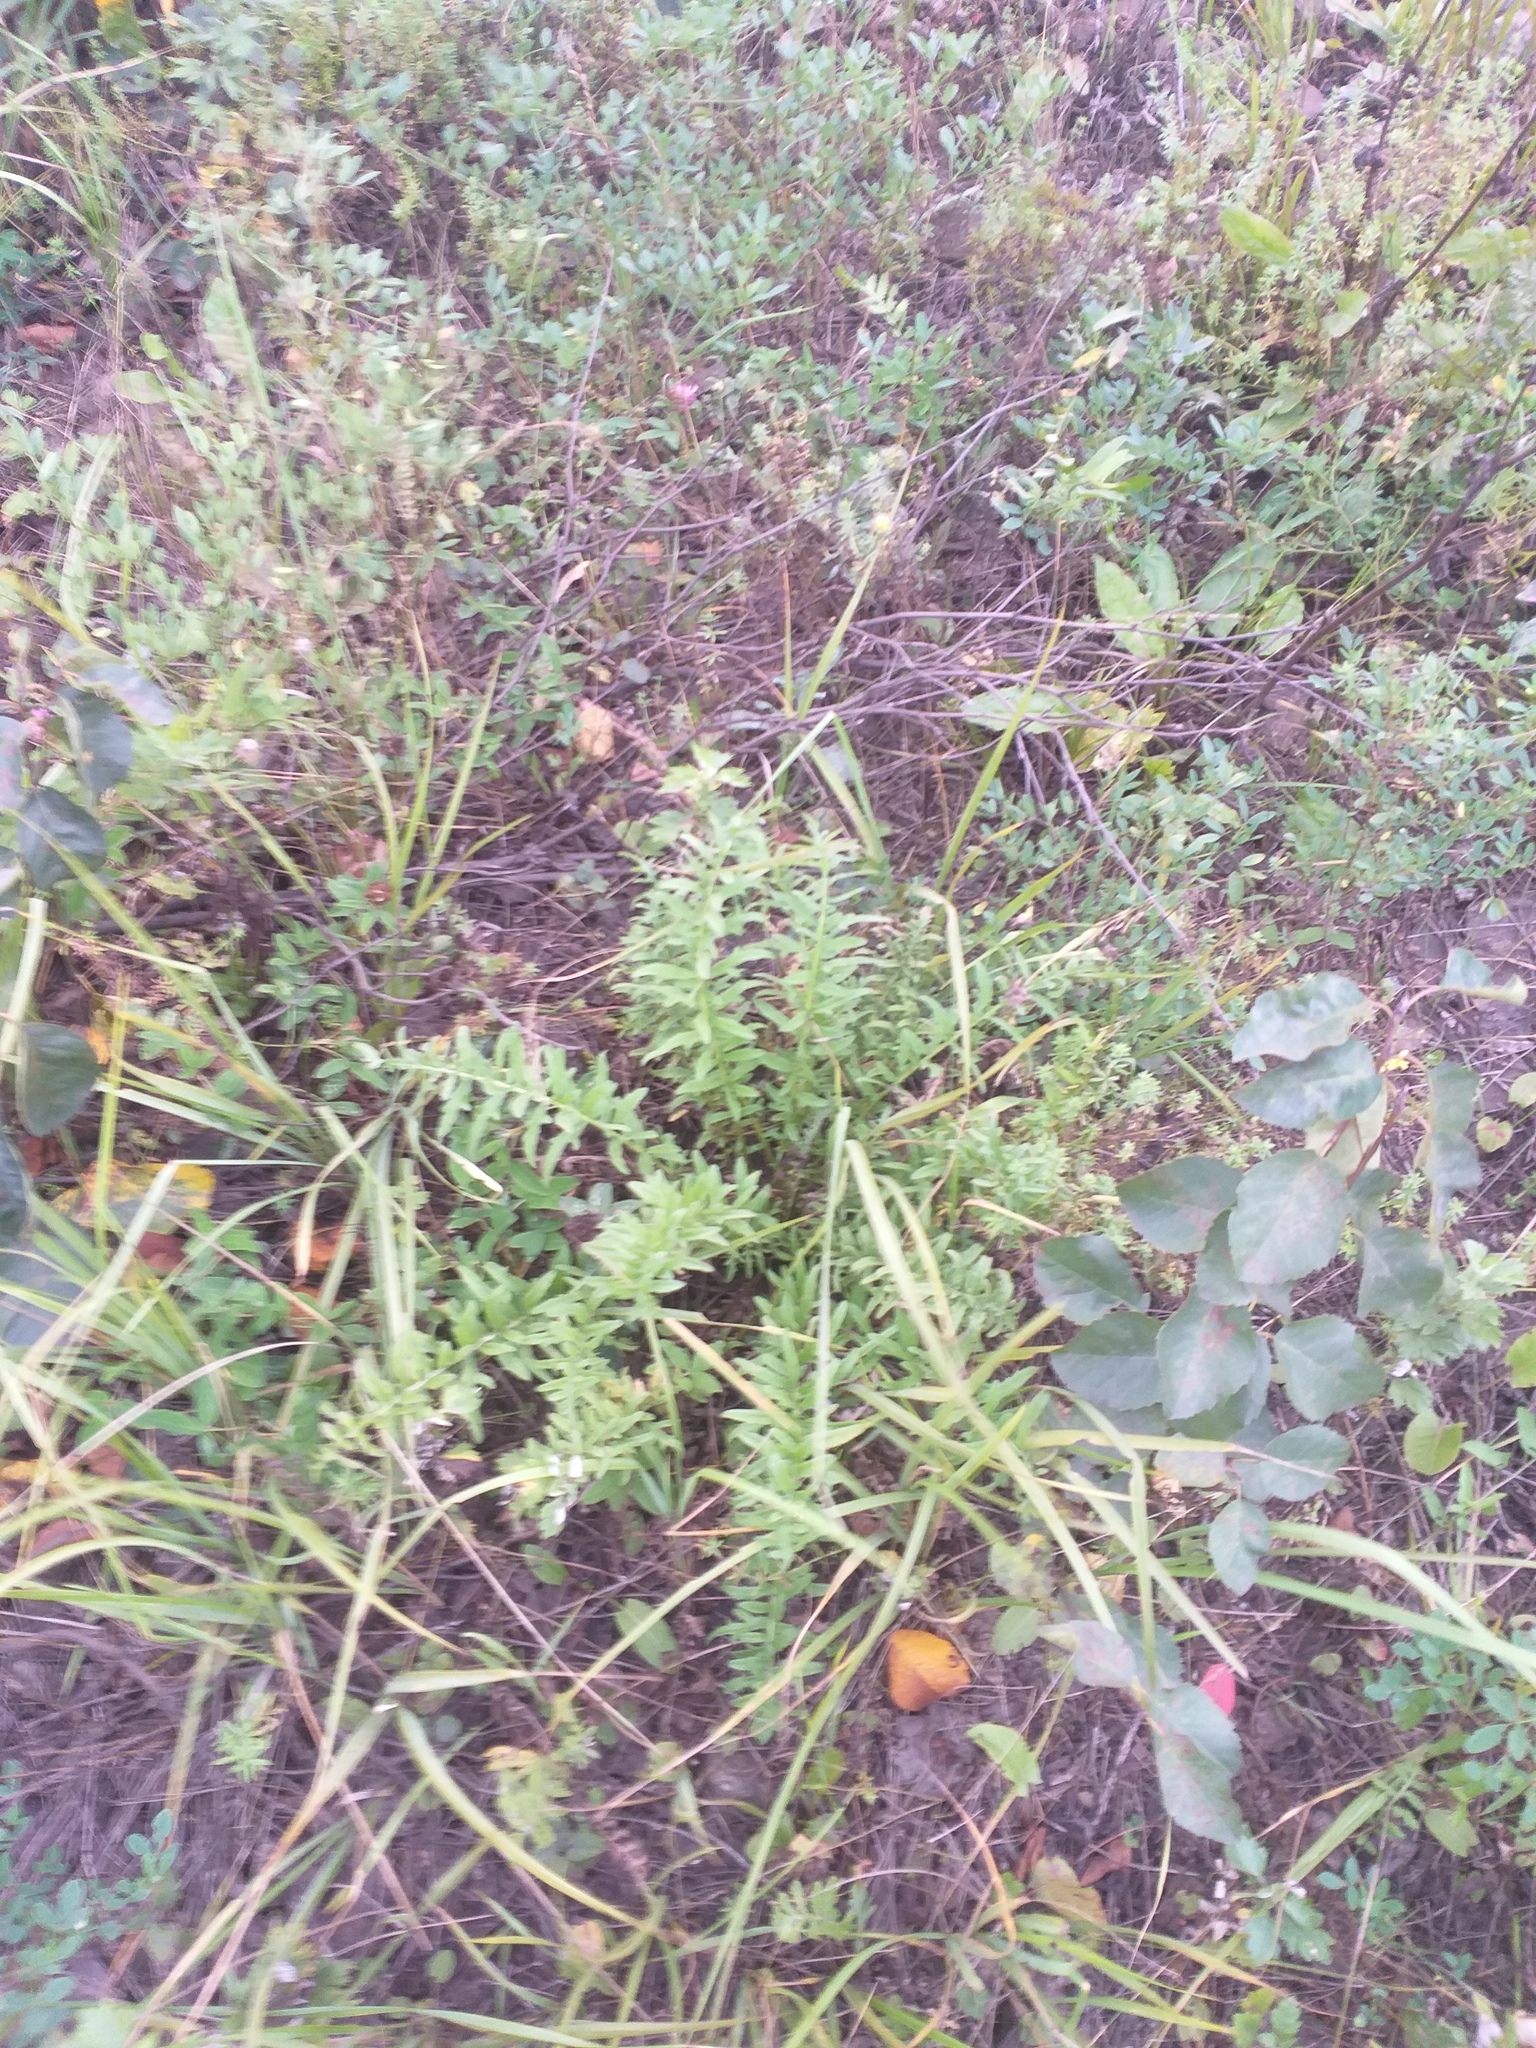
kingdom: Plantae
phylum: Tracheophyta
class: Magnoliopsida
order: Asterales
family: Asteraceae
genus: Centaurea
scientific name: Centaurea scabiosa
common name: Greater knapweed
